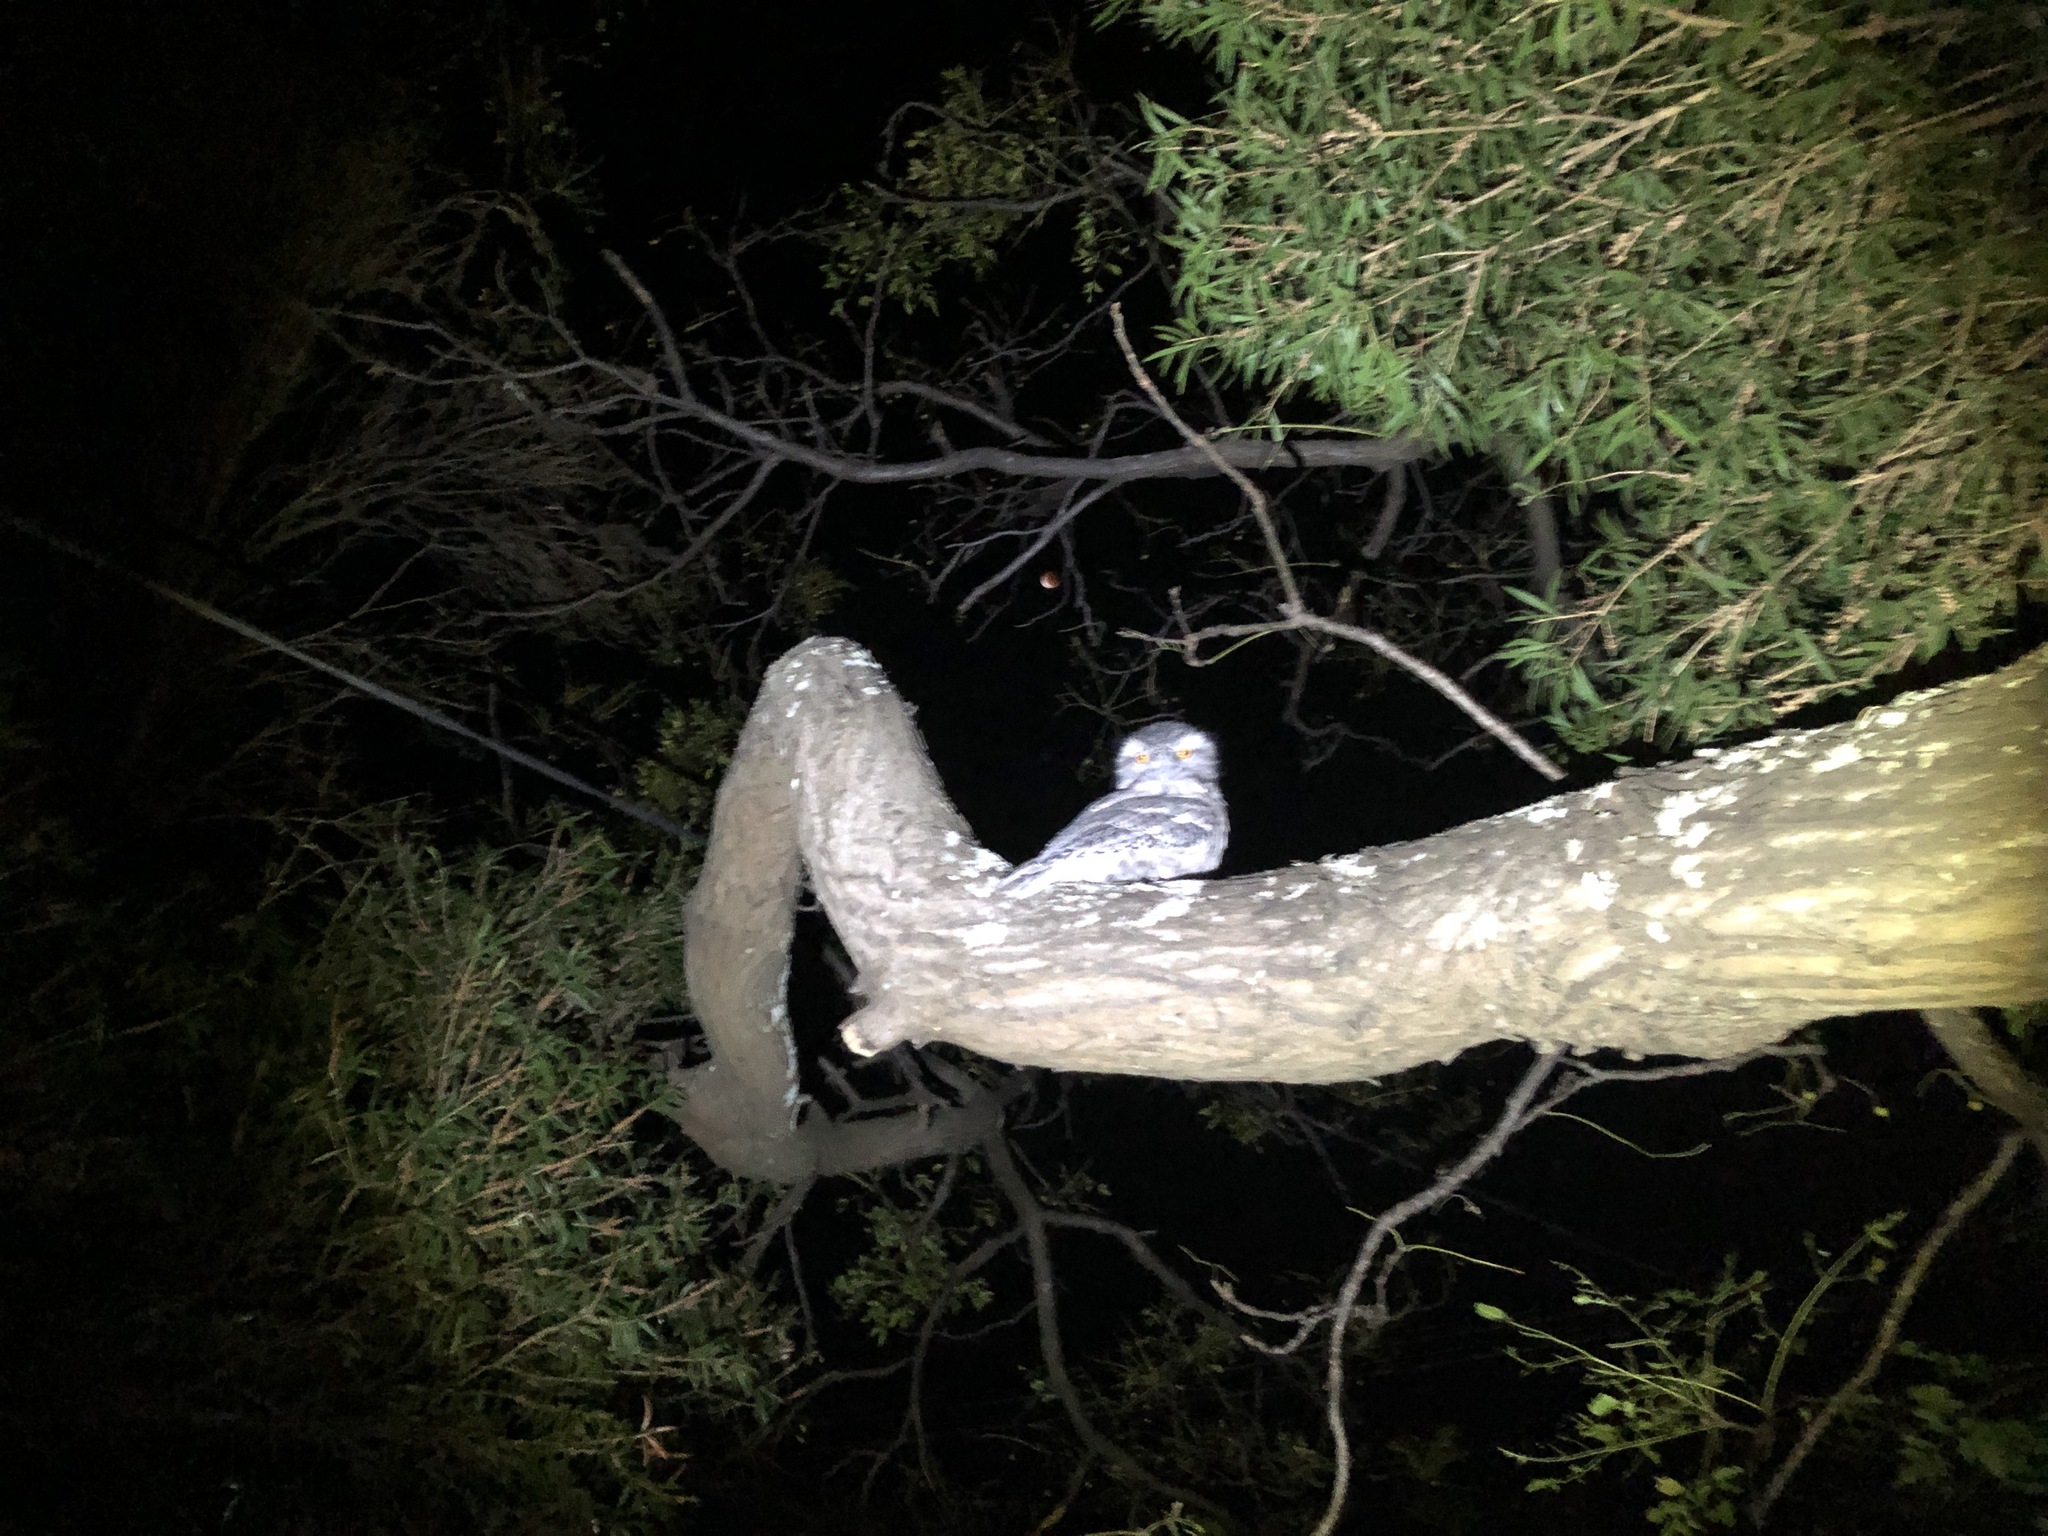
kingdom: Animalia
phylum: Chordata
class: Aves
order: Caprimulgiformes
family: Podargidae
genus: Podargus
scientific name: Podargus strigoides
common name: Tawny frogmouth
